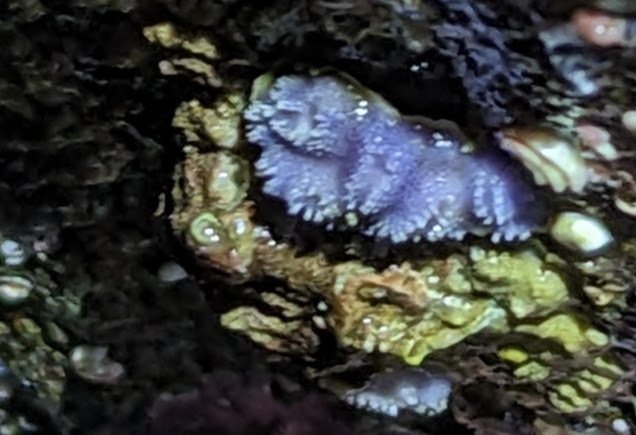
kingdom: Animalia
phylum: Bryozoa
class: Stenolaemata
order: Cyclostomatida
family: Lichenoporidae
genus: Disporella
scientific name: Disporella separata
